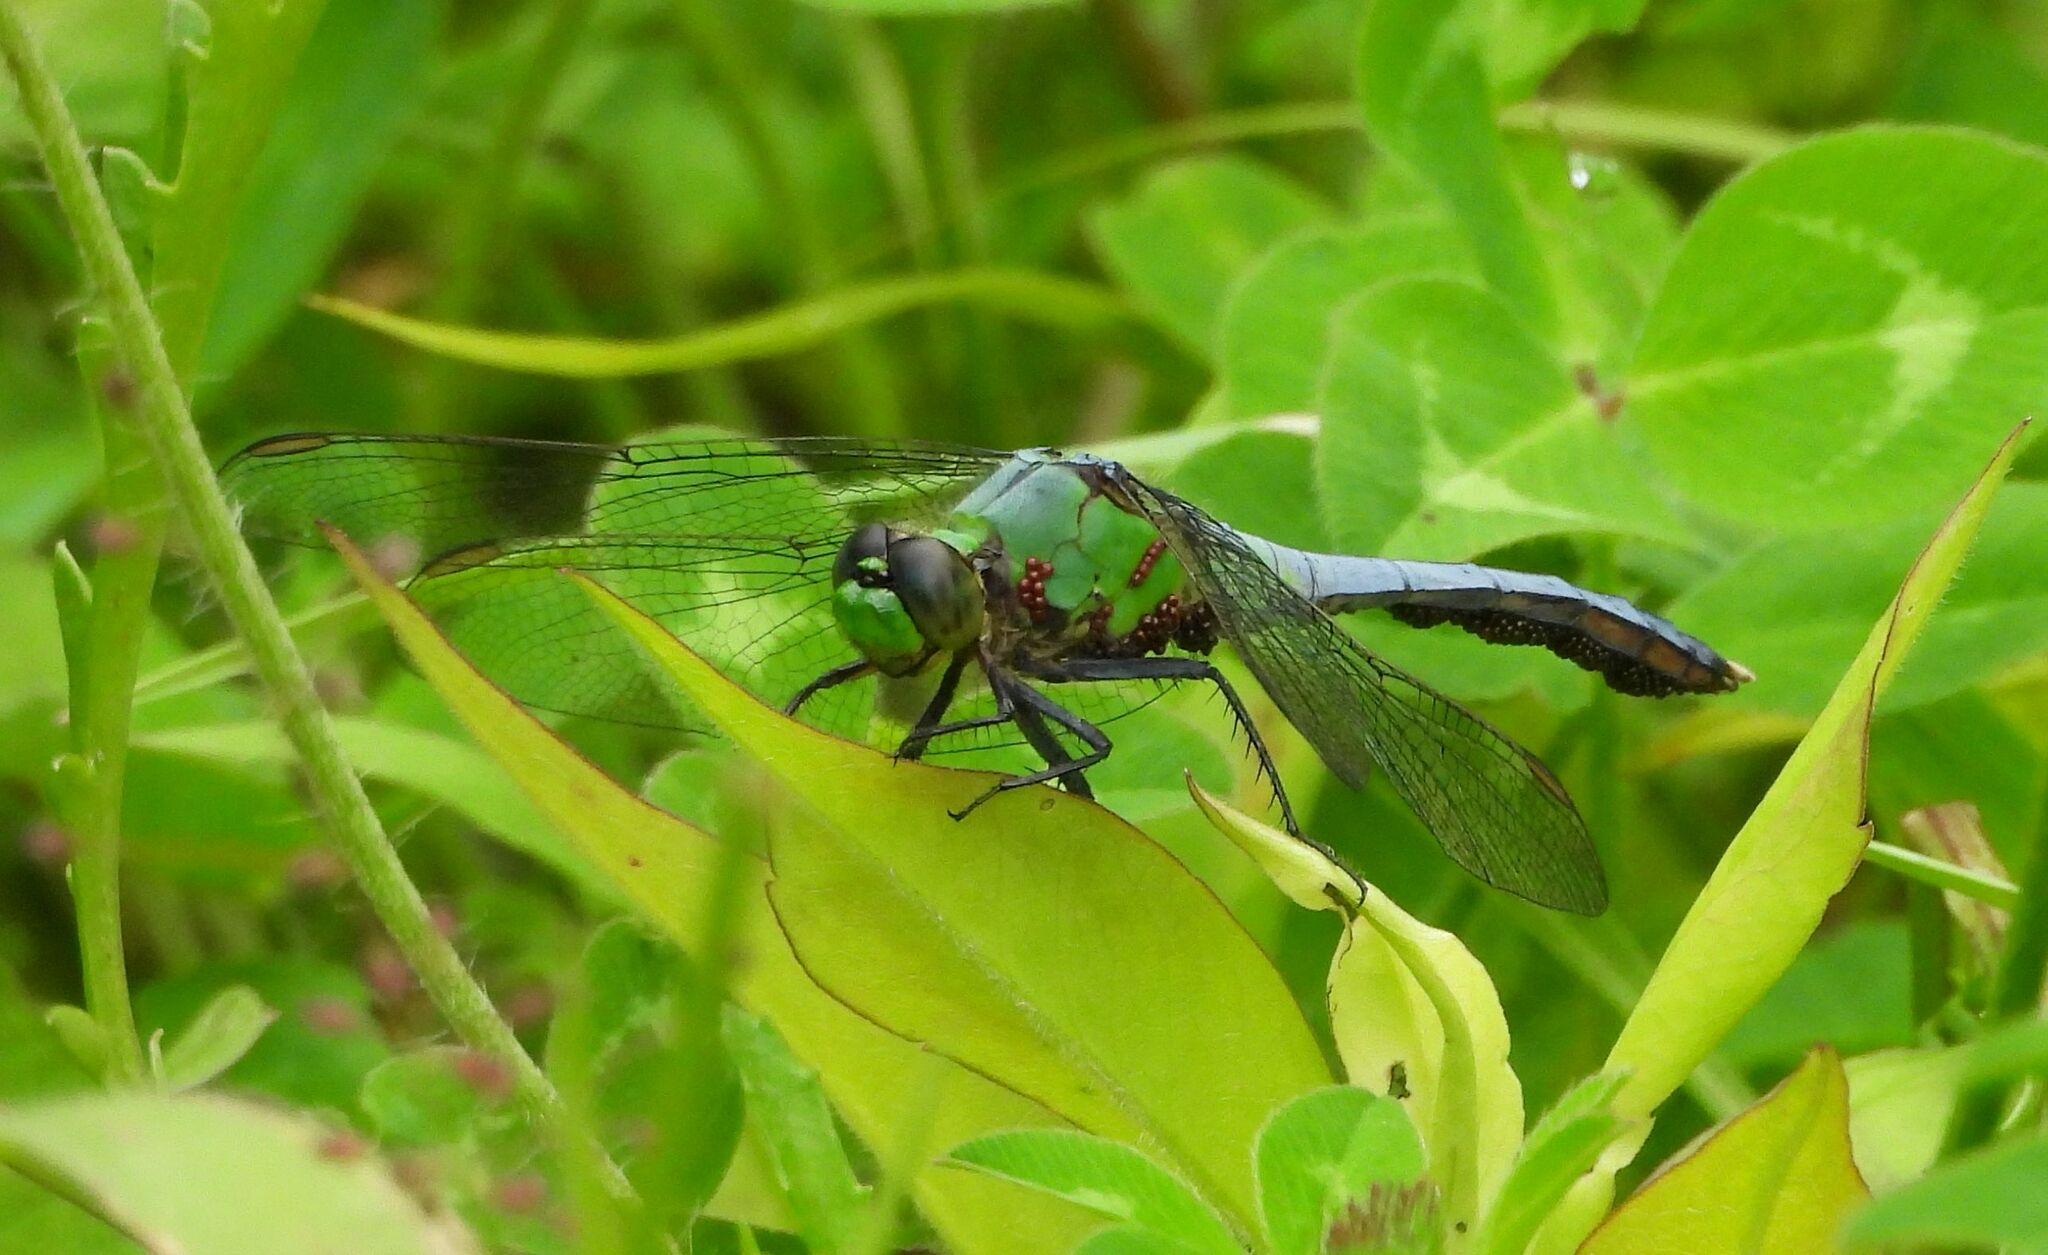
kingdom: Animalia
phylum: Arthropoda
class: Insecta
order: Odonata
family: Libellulidae
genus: Erythemis
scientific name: Erythemis simplicicollis
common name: Eastern pondhawk
